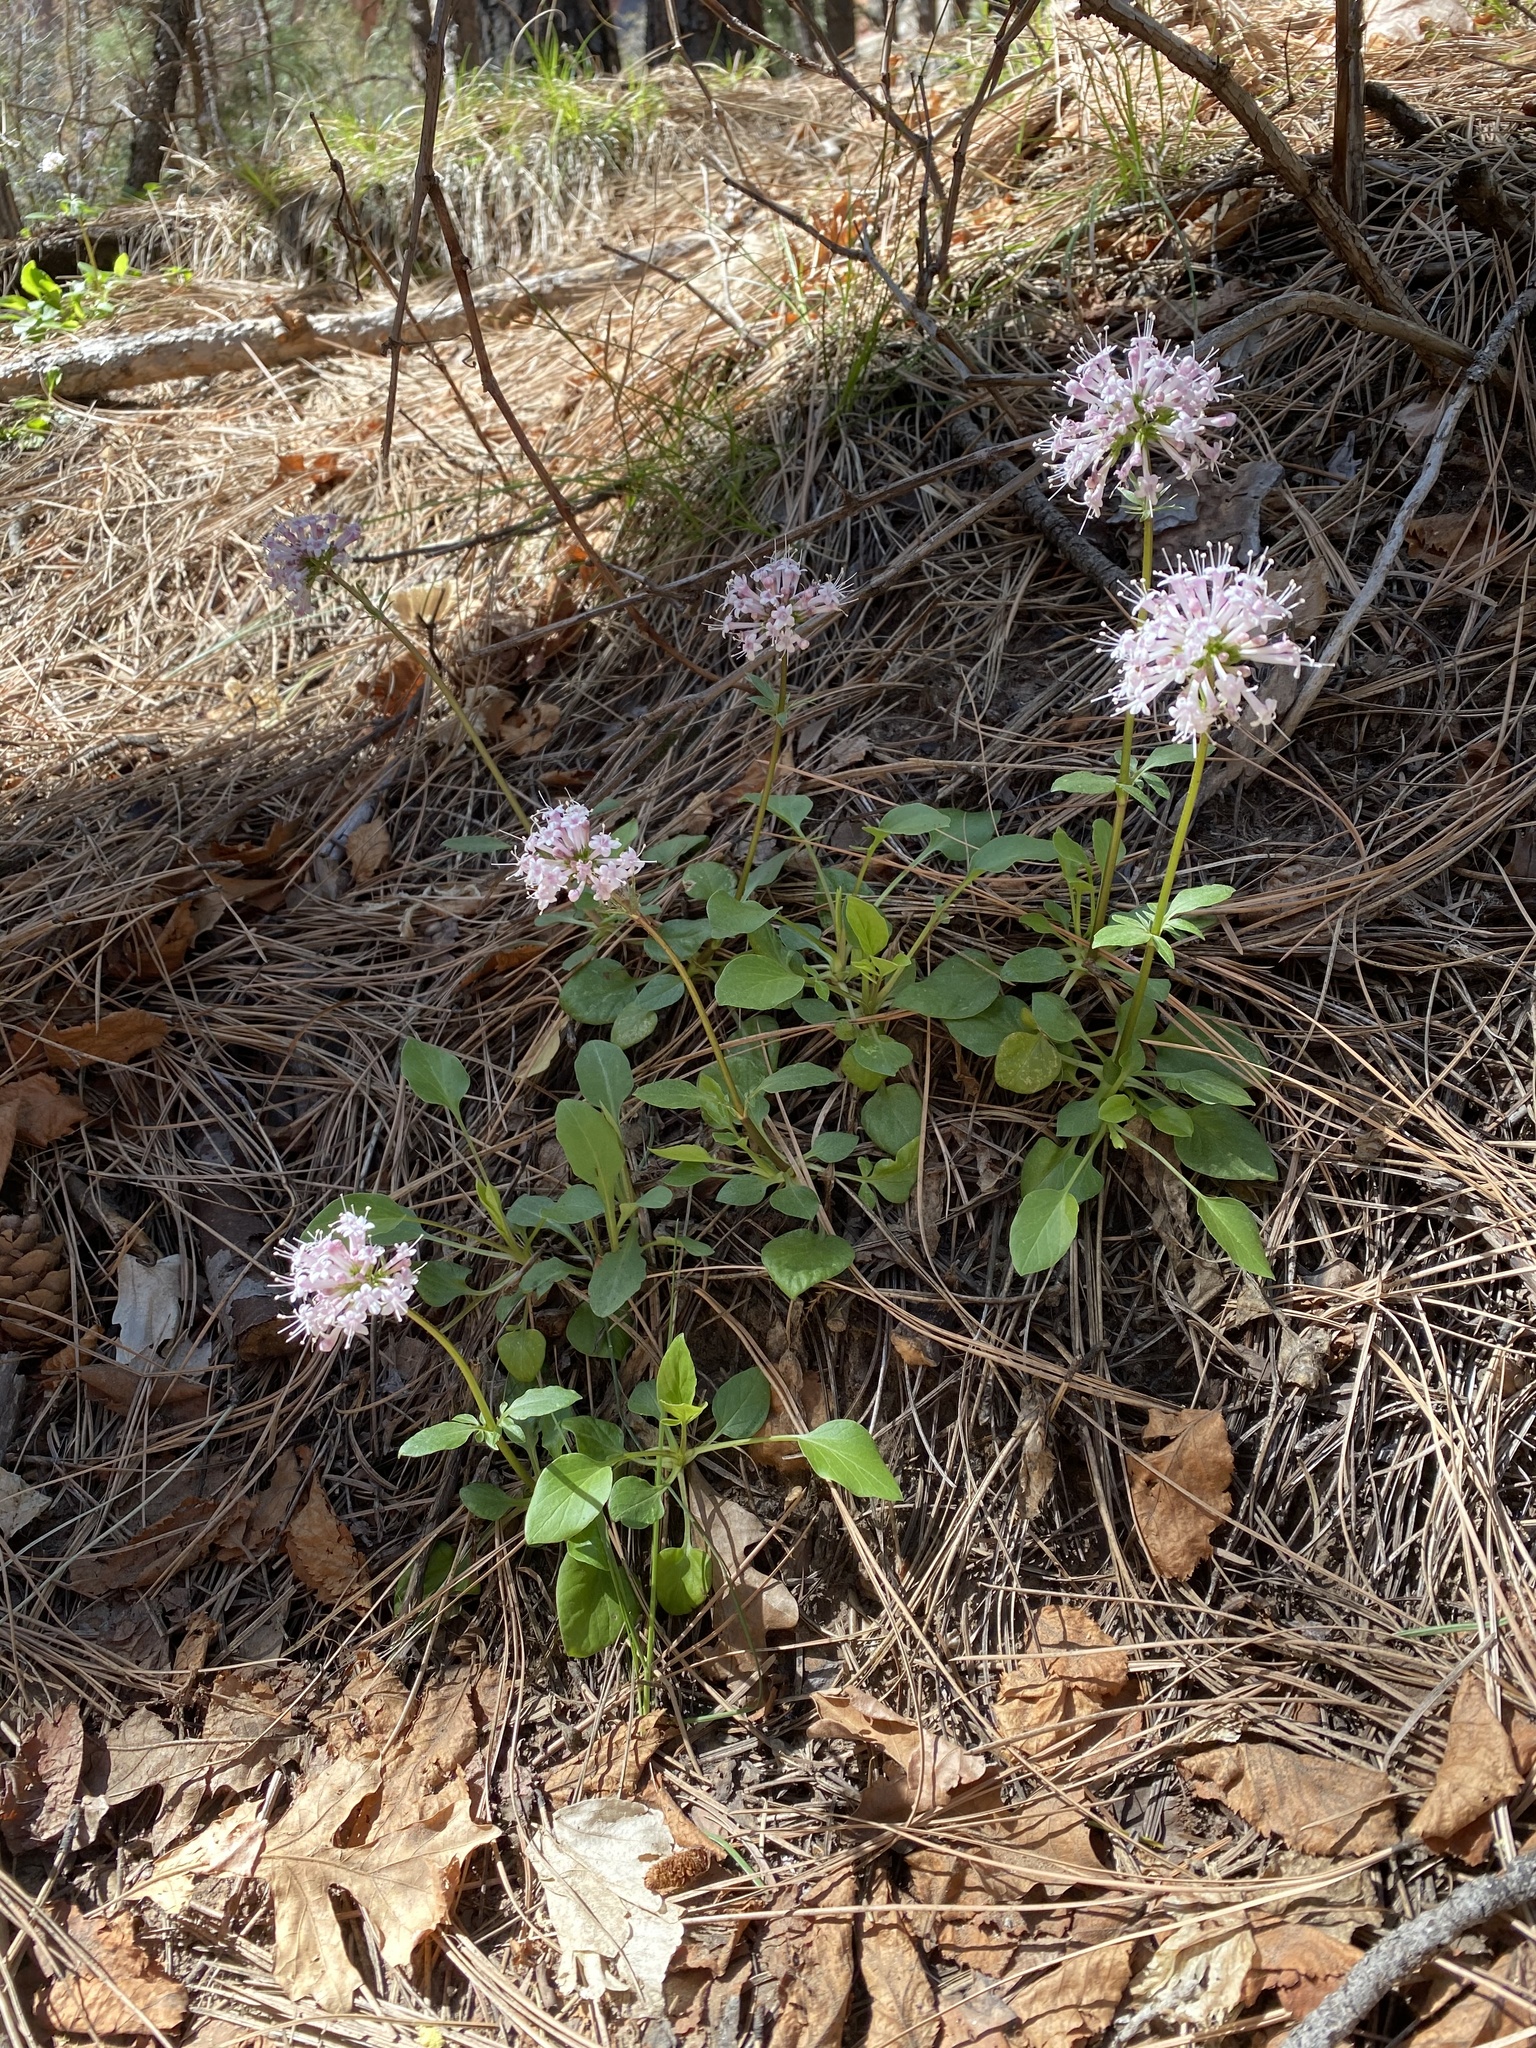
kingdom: Plantae
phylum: Tracheophyta
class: Magnoliopsida
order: Dipsacales
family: Caprifoliaceae
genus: Valeriana
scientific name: Valeriana arizonica
